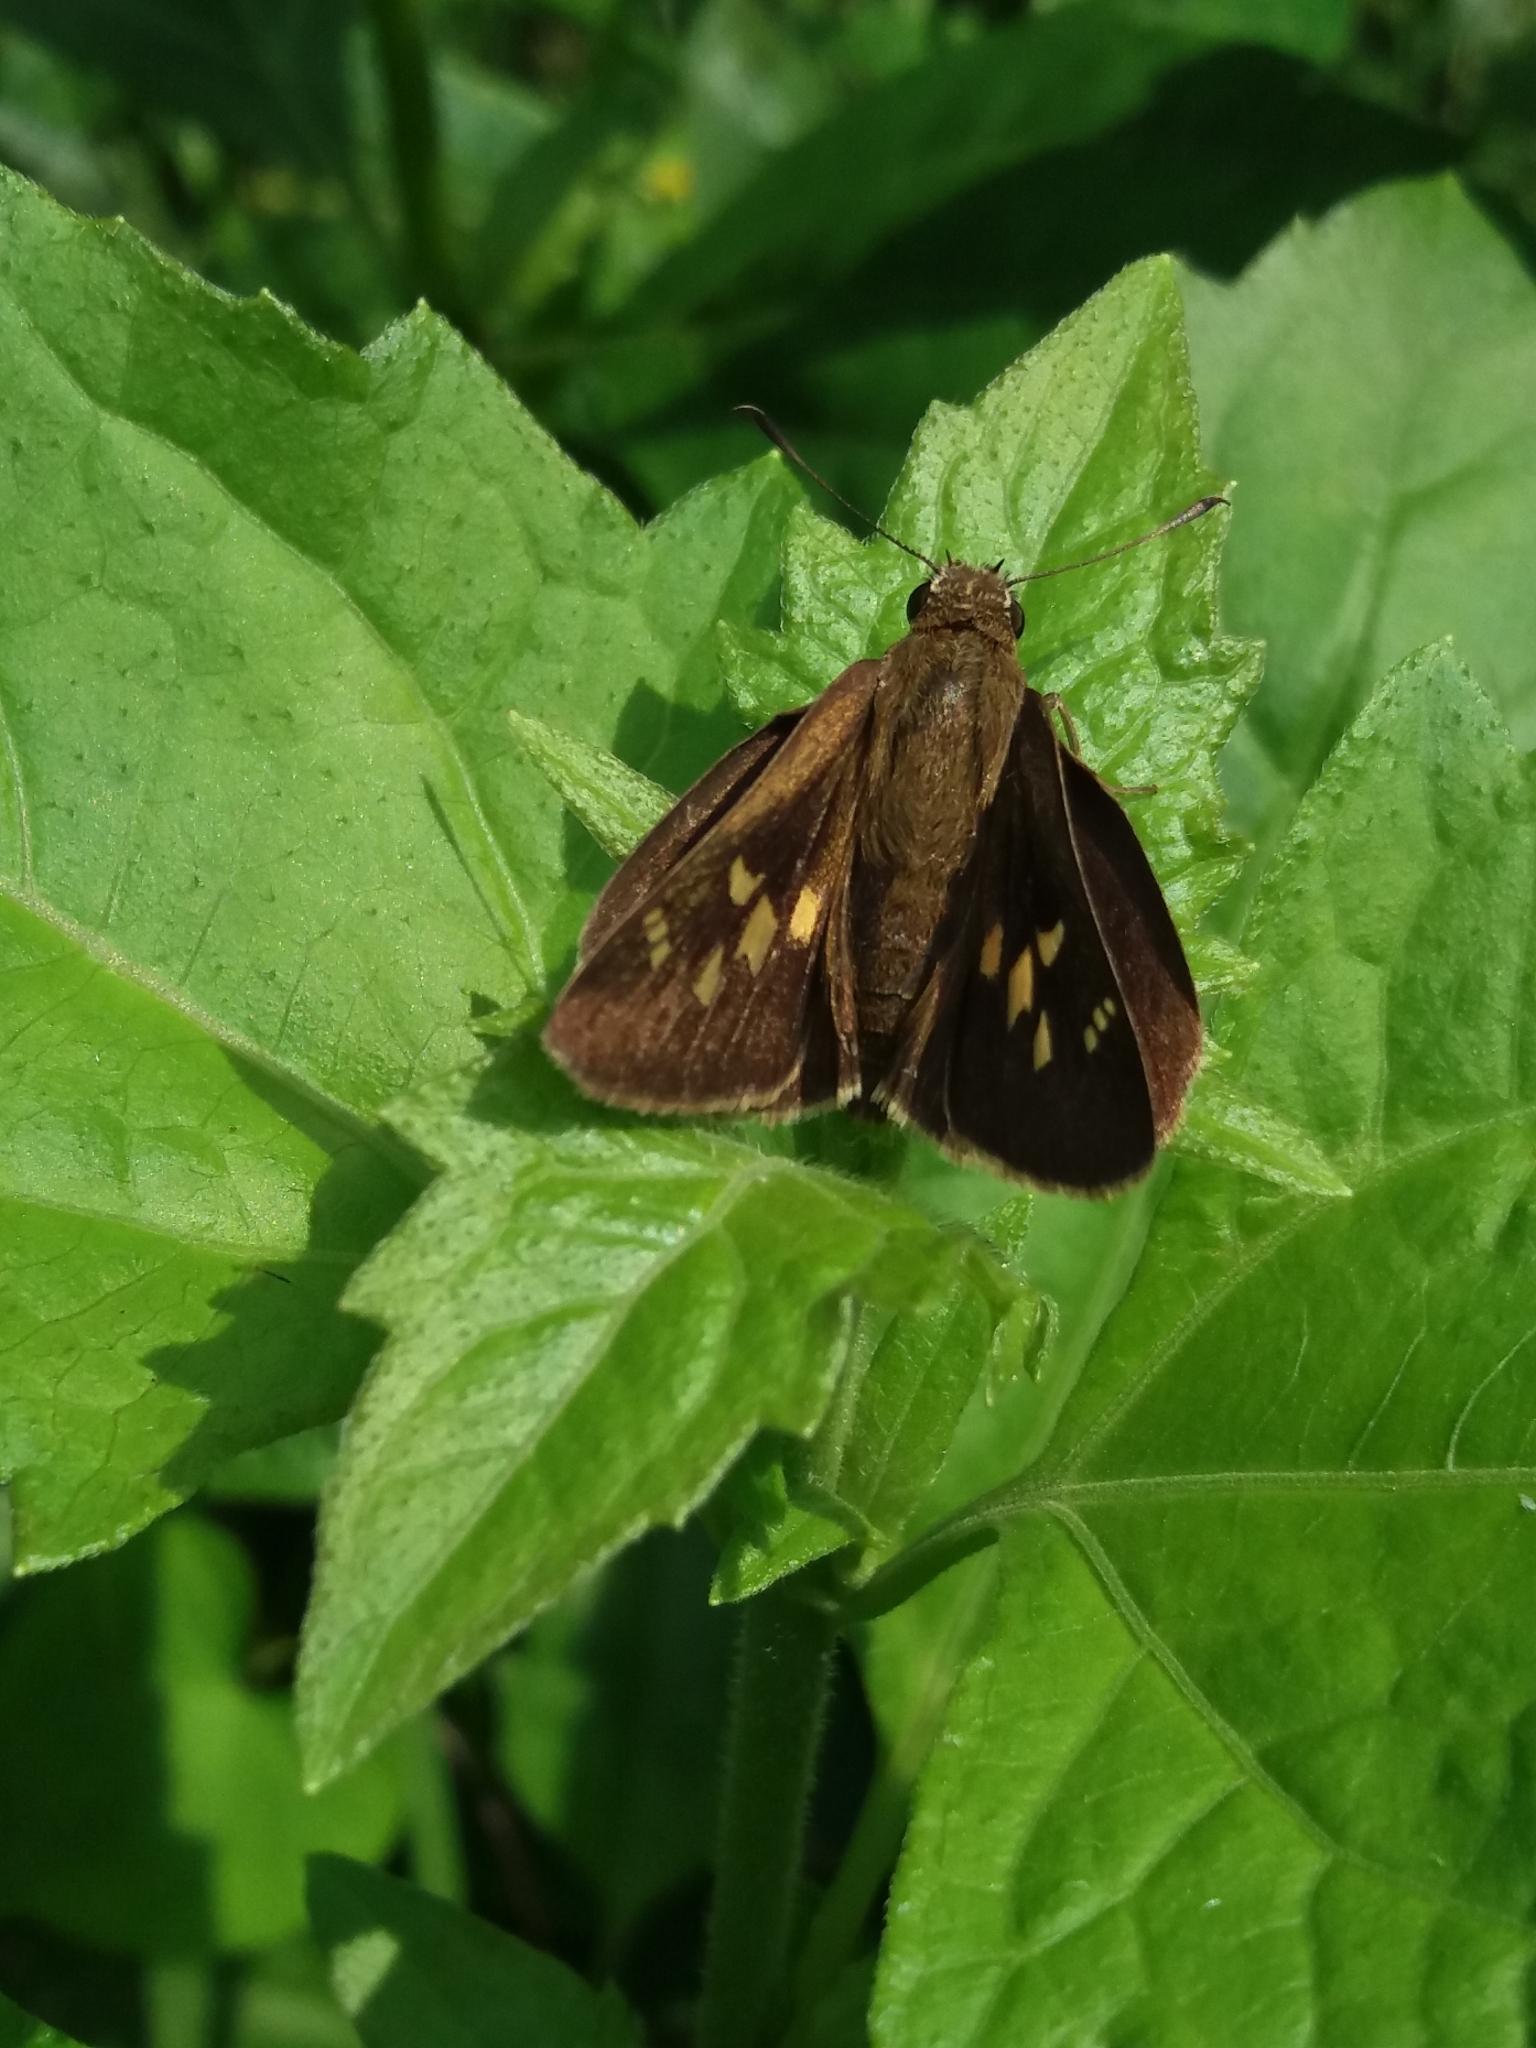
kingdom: Animalia
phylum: Arthropoda
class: Insecta
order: Lepidoptera
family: Hesperiidae
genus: Suastus
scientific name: Suastus gremius
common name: Indian palm bob
